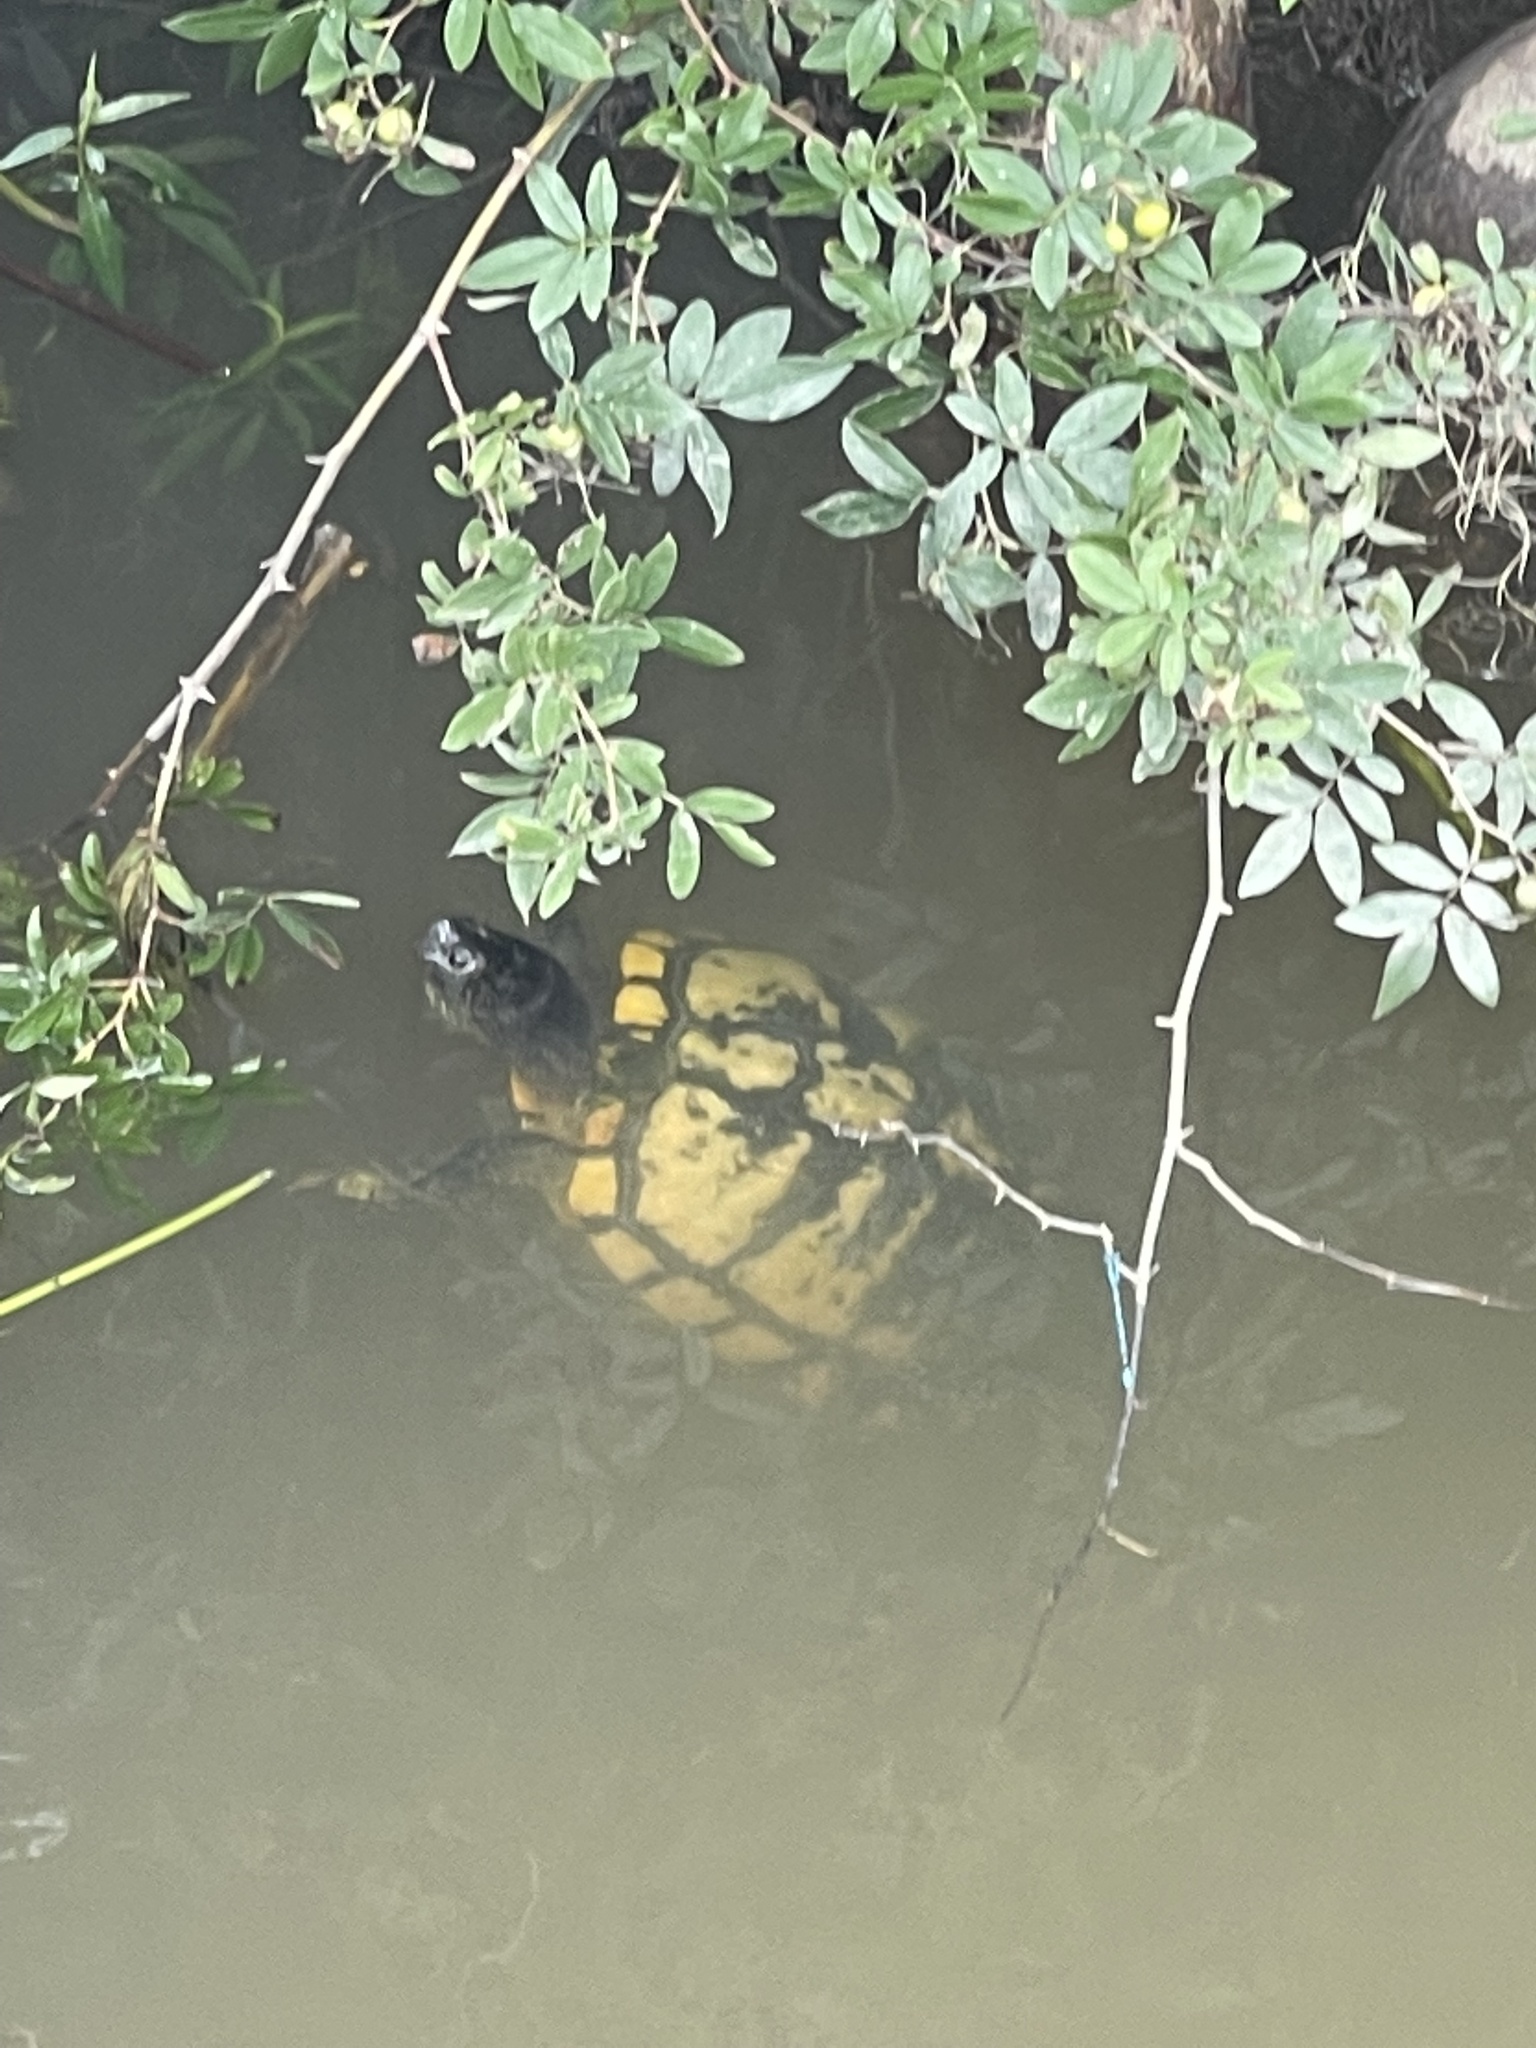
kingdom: Animalia
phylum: Chordata
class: Testudines
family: Emydidae
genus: Trachemys
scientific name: Trachemys scripta
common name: Slider
